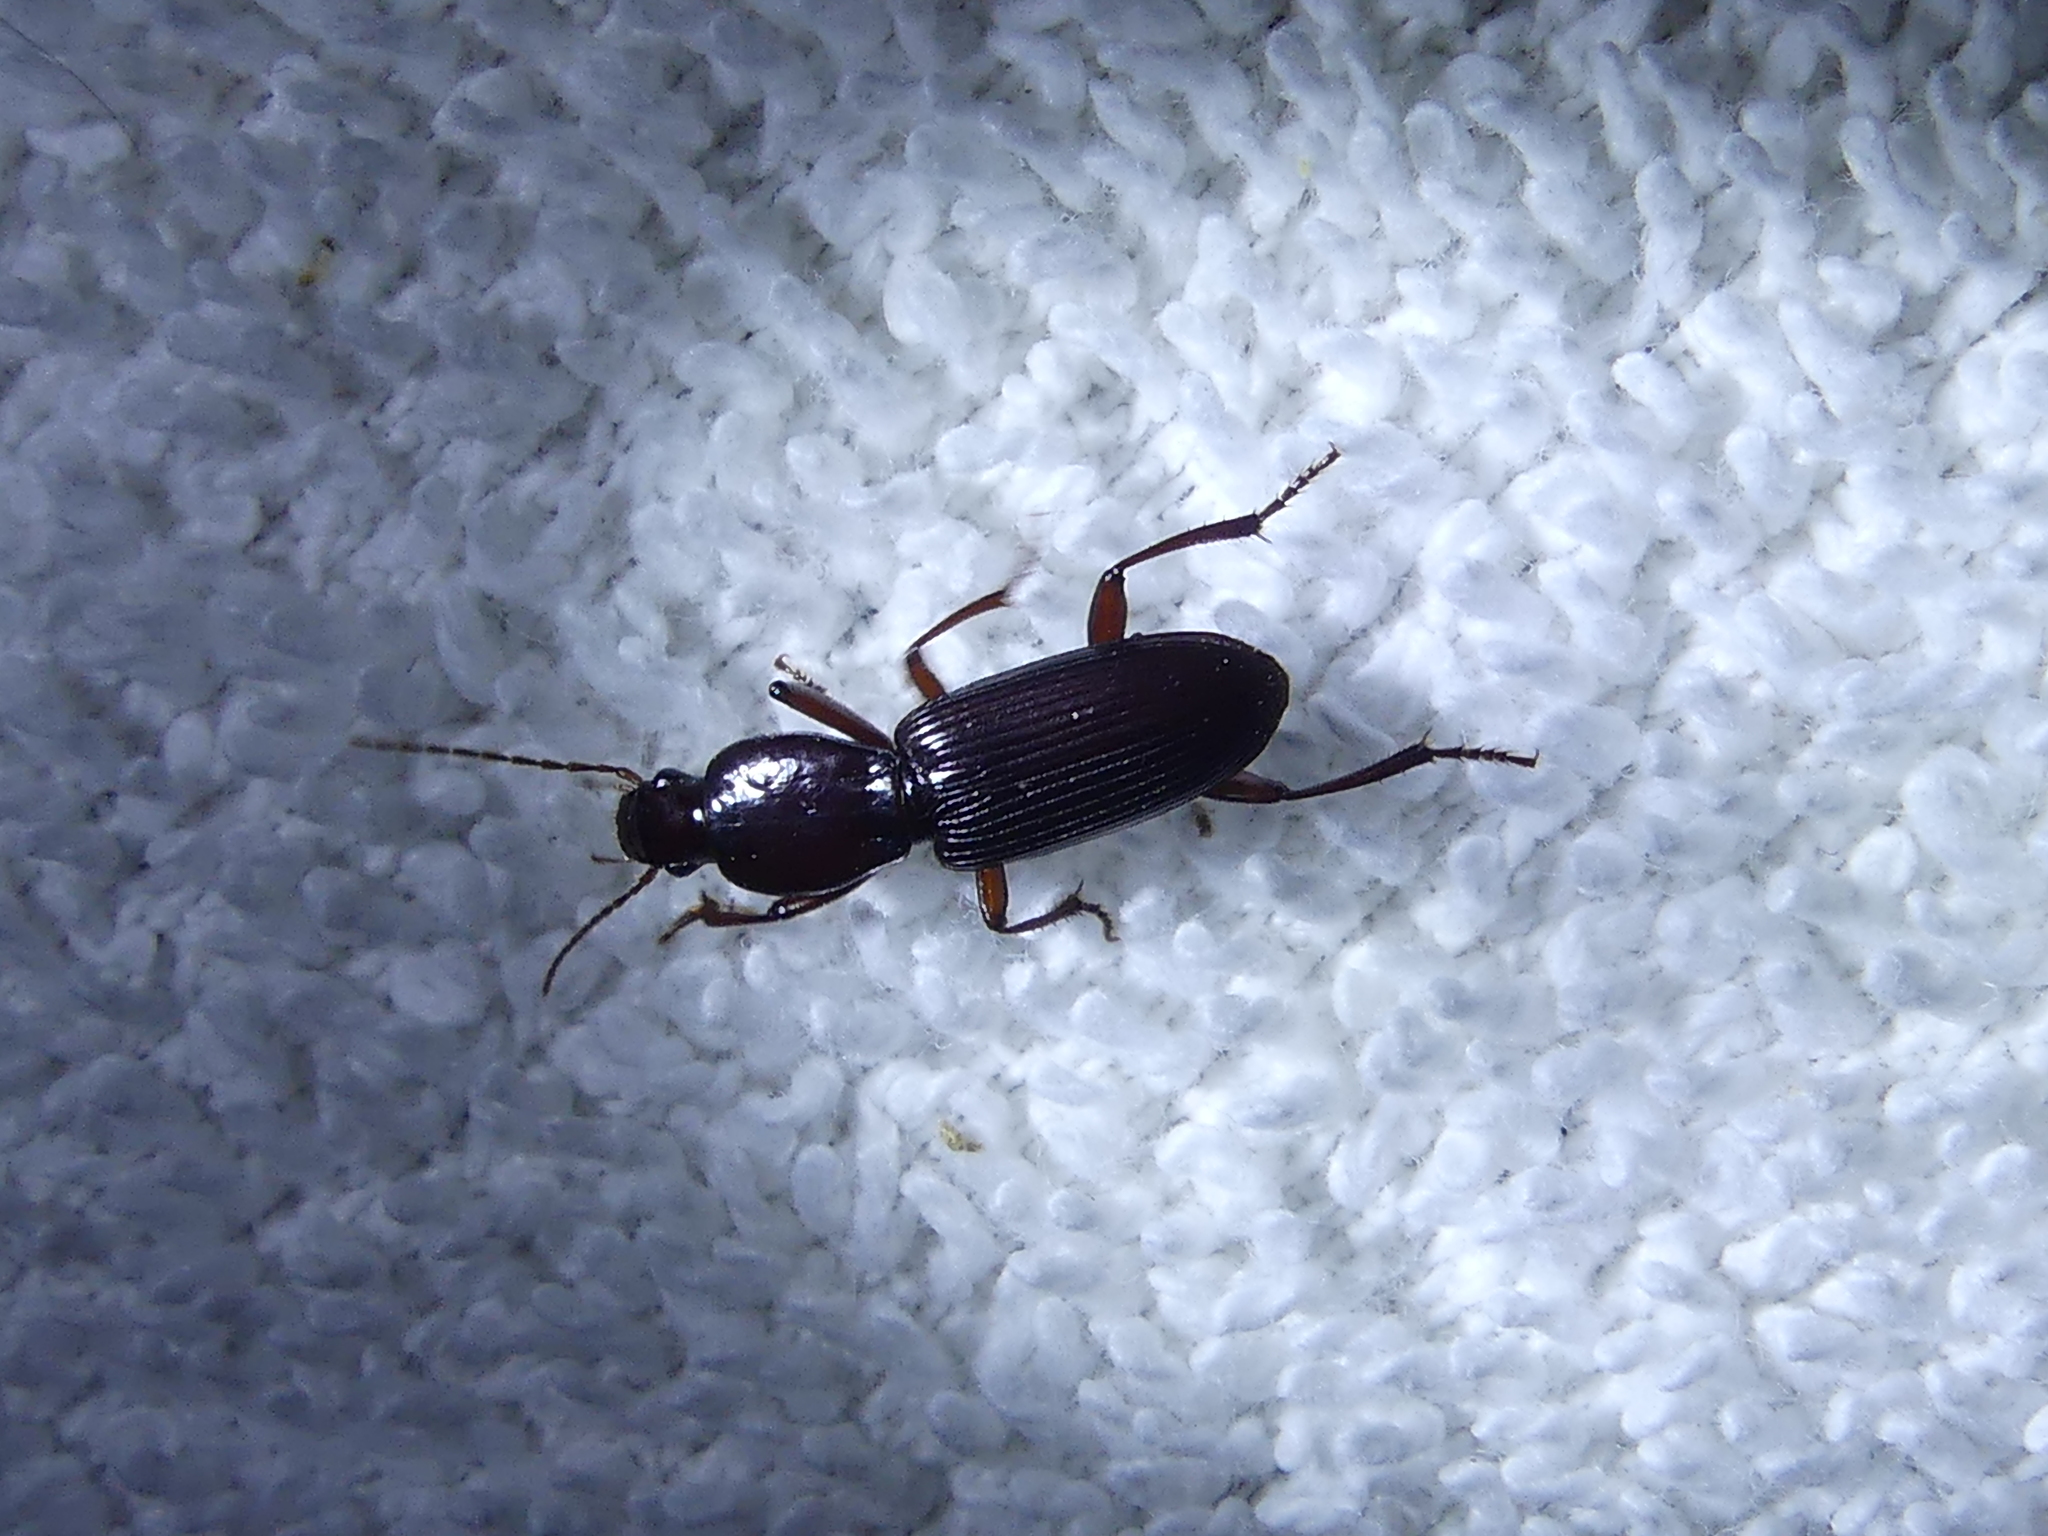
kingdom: Animalia
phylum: Arthropoda
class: Insecta
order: Coleoptera
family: Carabidae
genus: Stenomorphus
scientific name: Stenomorphus californicus
